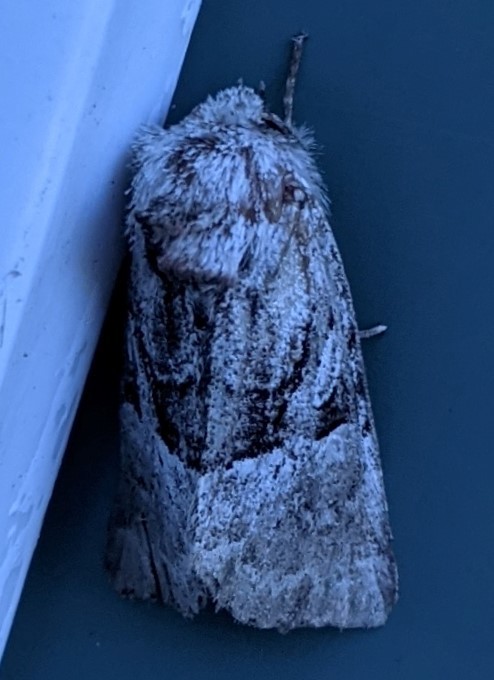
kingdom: Animalia
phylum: Arthropoda
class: Insecta
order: Lepidoptera
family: Noctuidae
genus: Meropleon
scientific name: Meropleon diversicolor
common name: Multicolored sedgeminer moth
